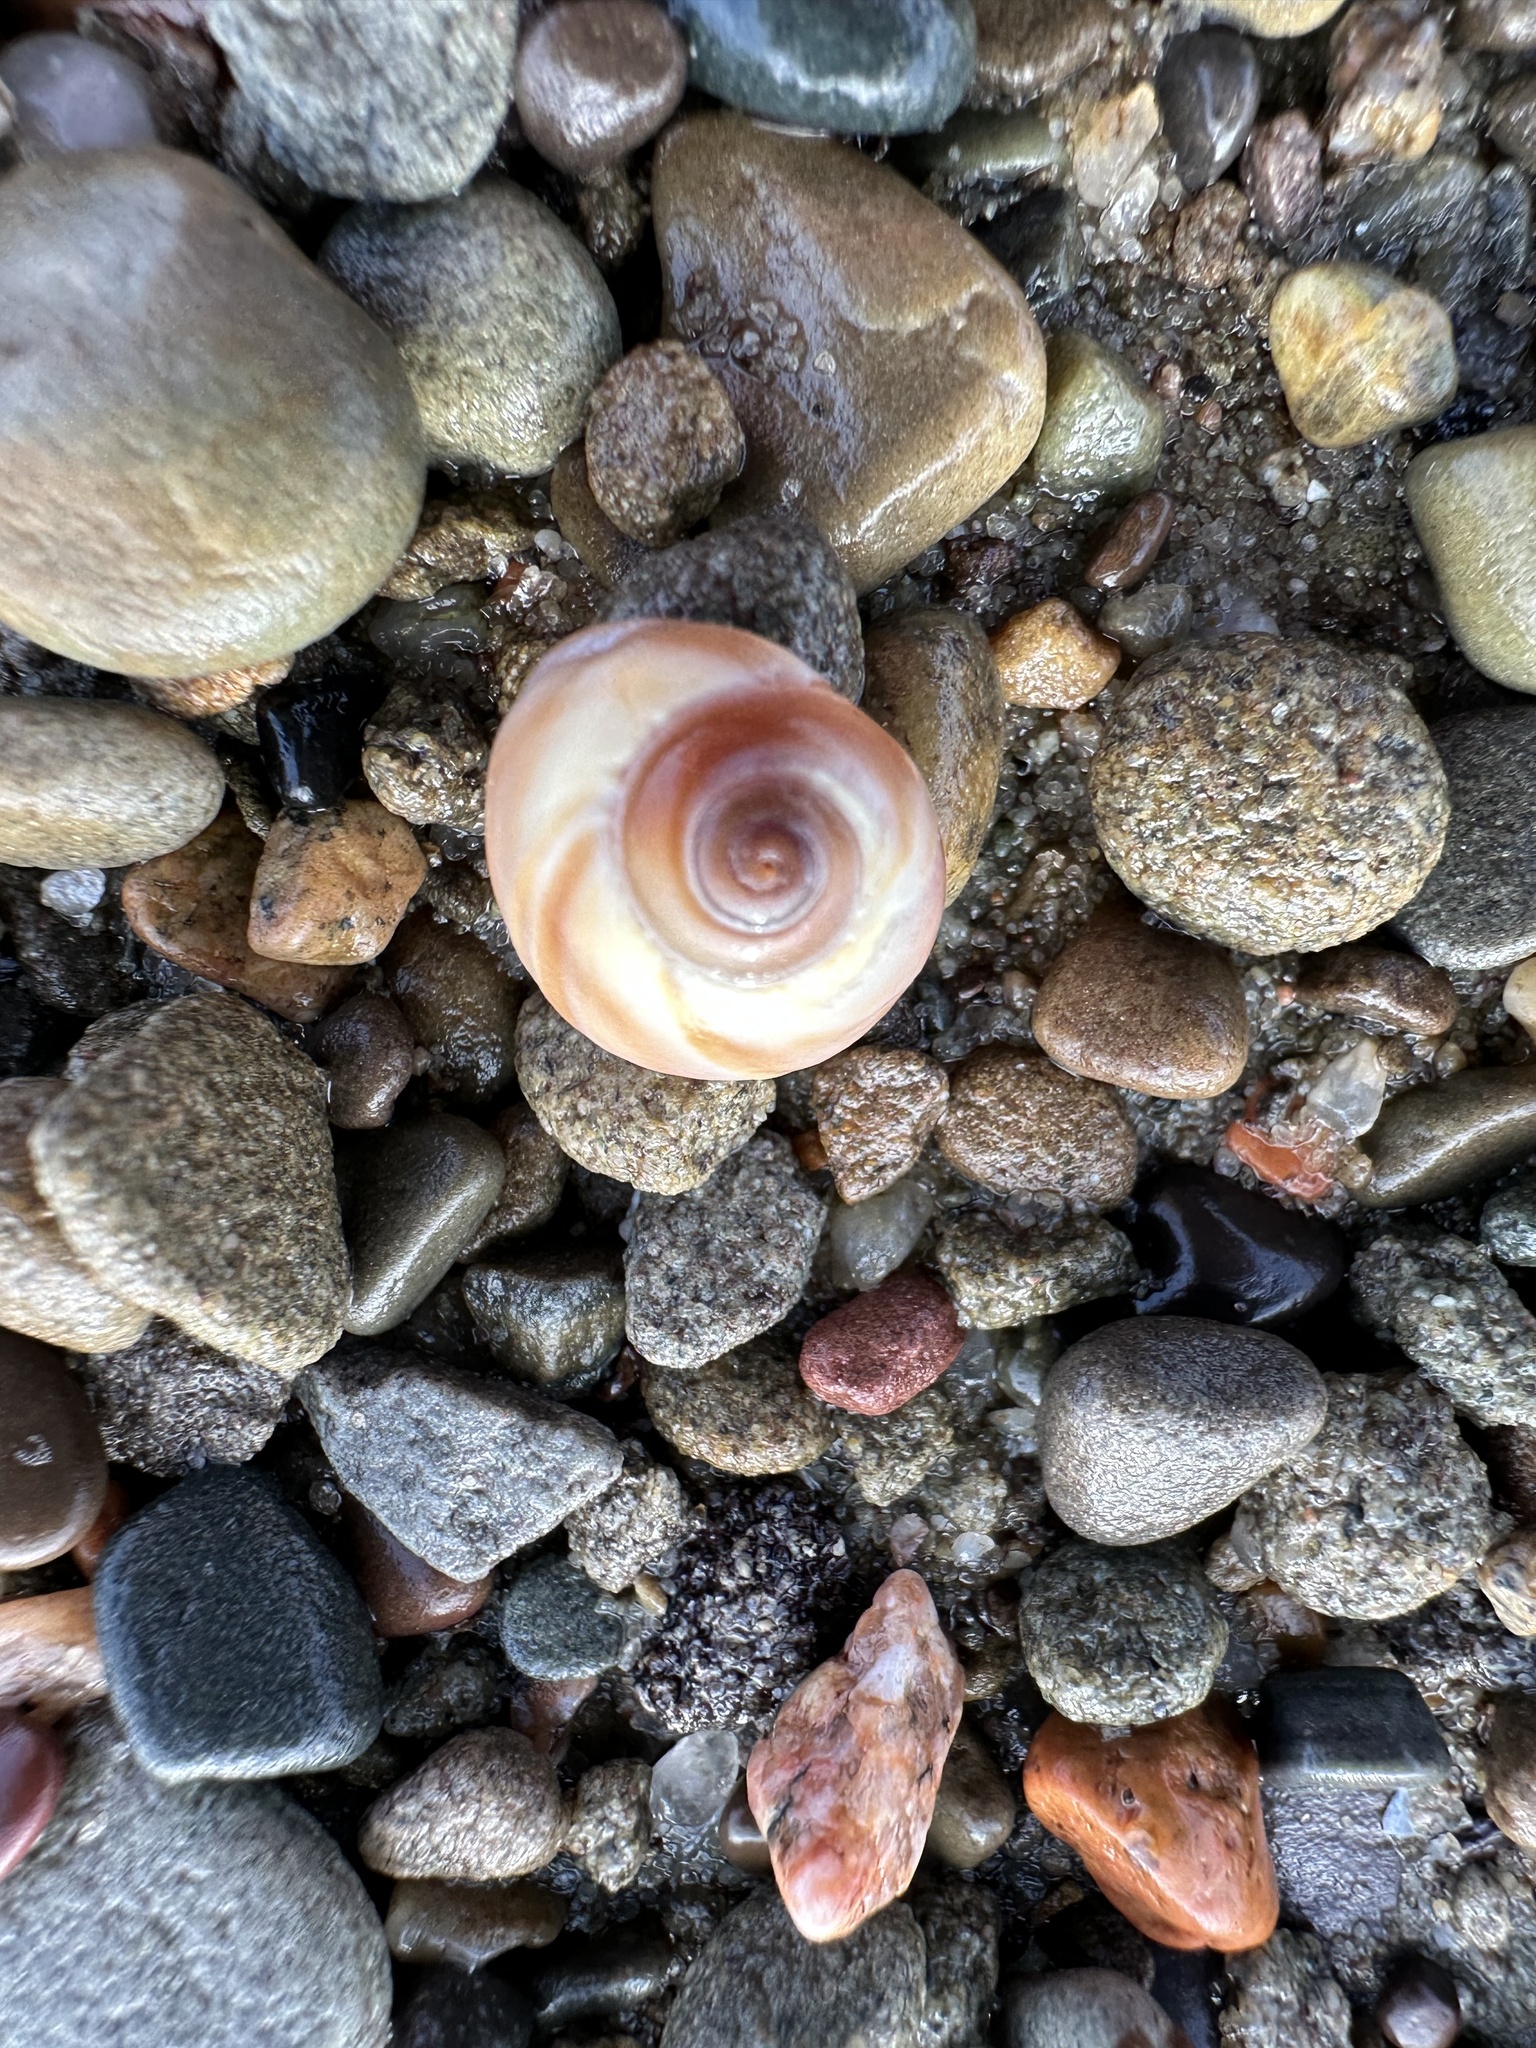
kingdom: Animalia
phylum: Mollusca
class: Gastropoda
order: Littorinimorpha
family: Naticidae
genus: Euspira
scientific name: Euspira heros
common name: Common northern moonsnail
